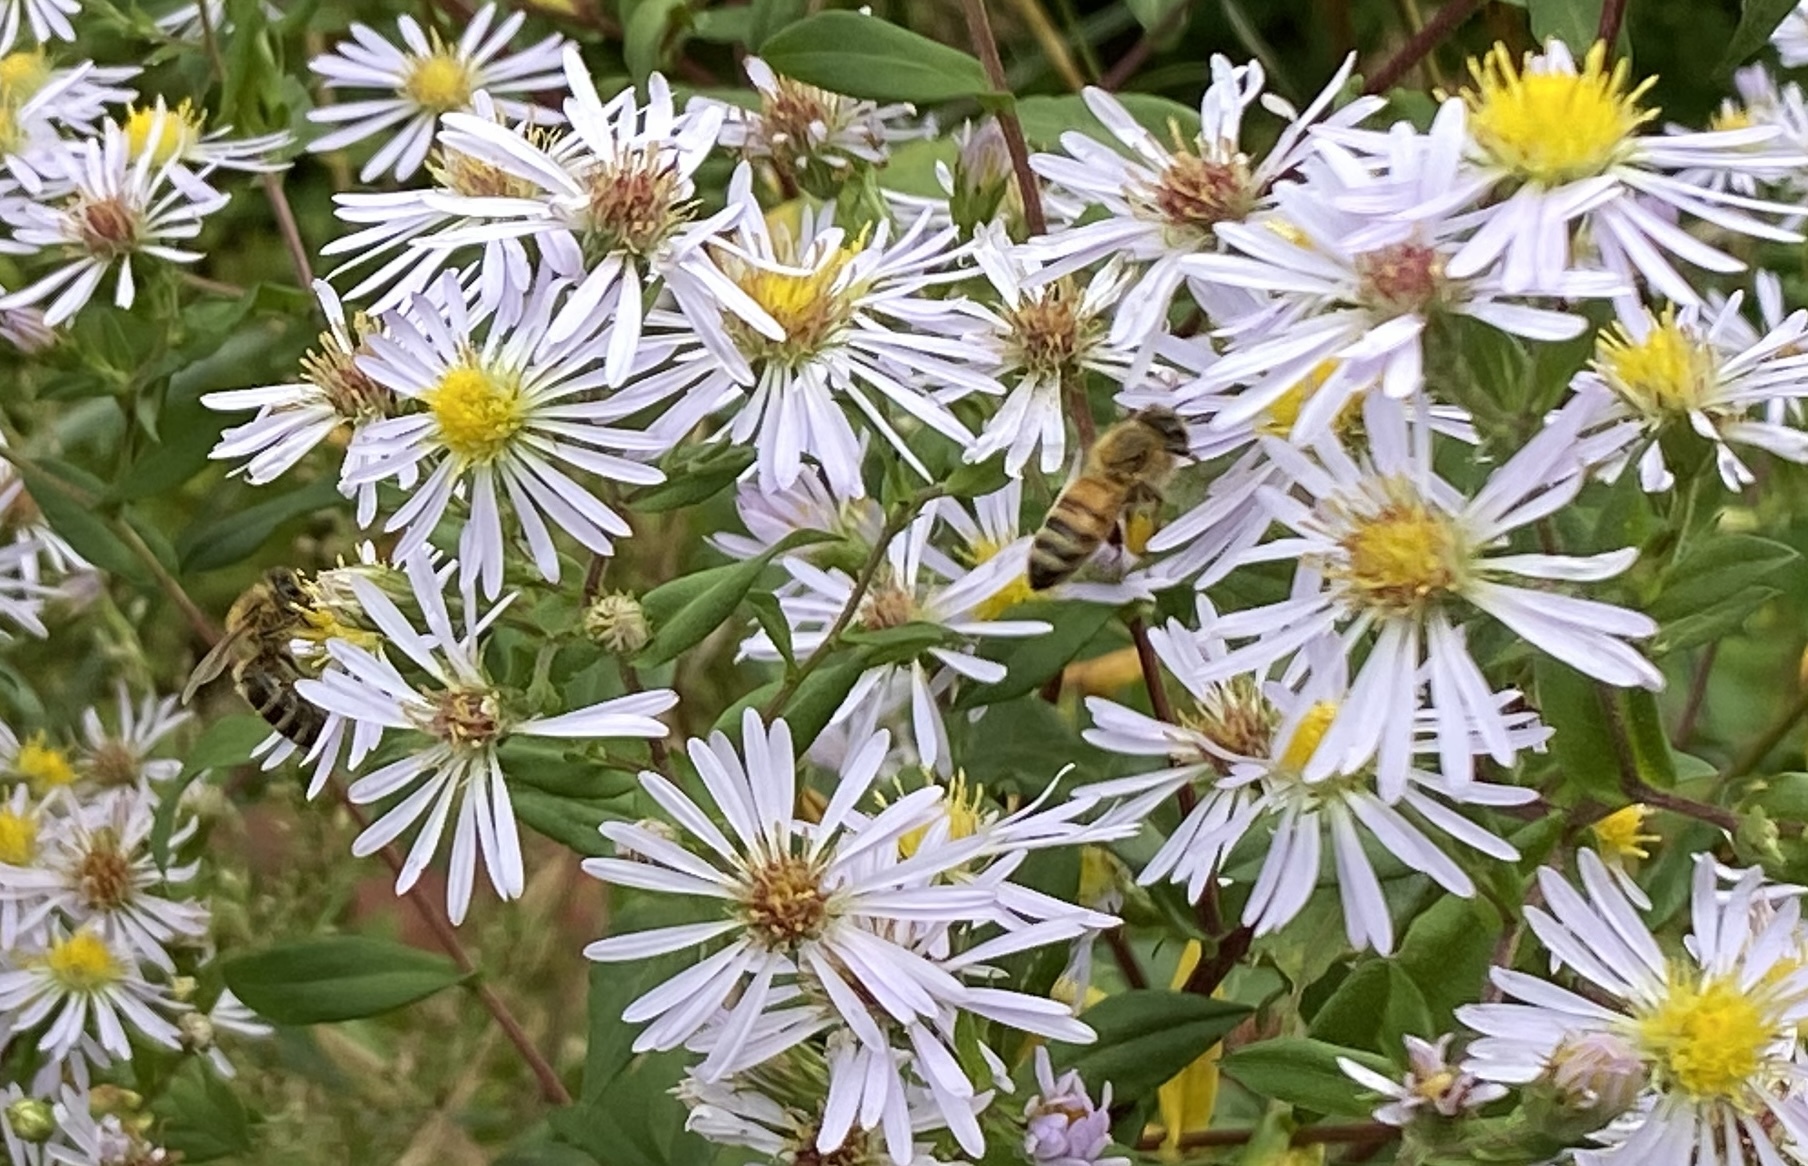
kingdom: Animalia
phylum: Arthropoda
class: Insecta
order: Hymenoptera
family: Apidae
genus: Apis
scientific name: Apis mellifera
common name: Honey bee
